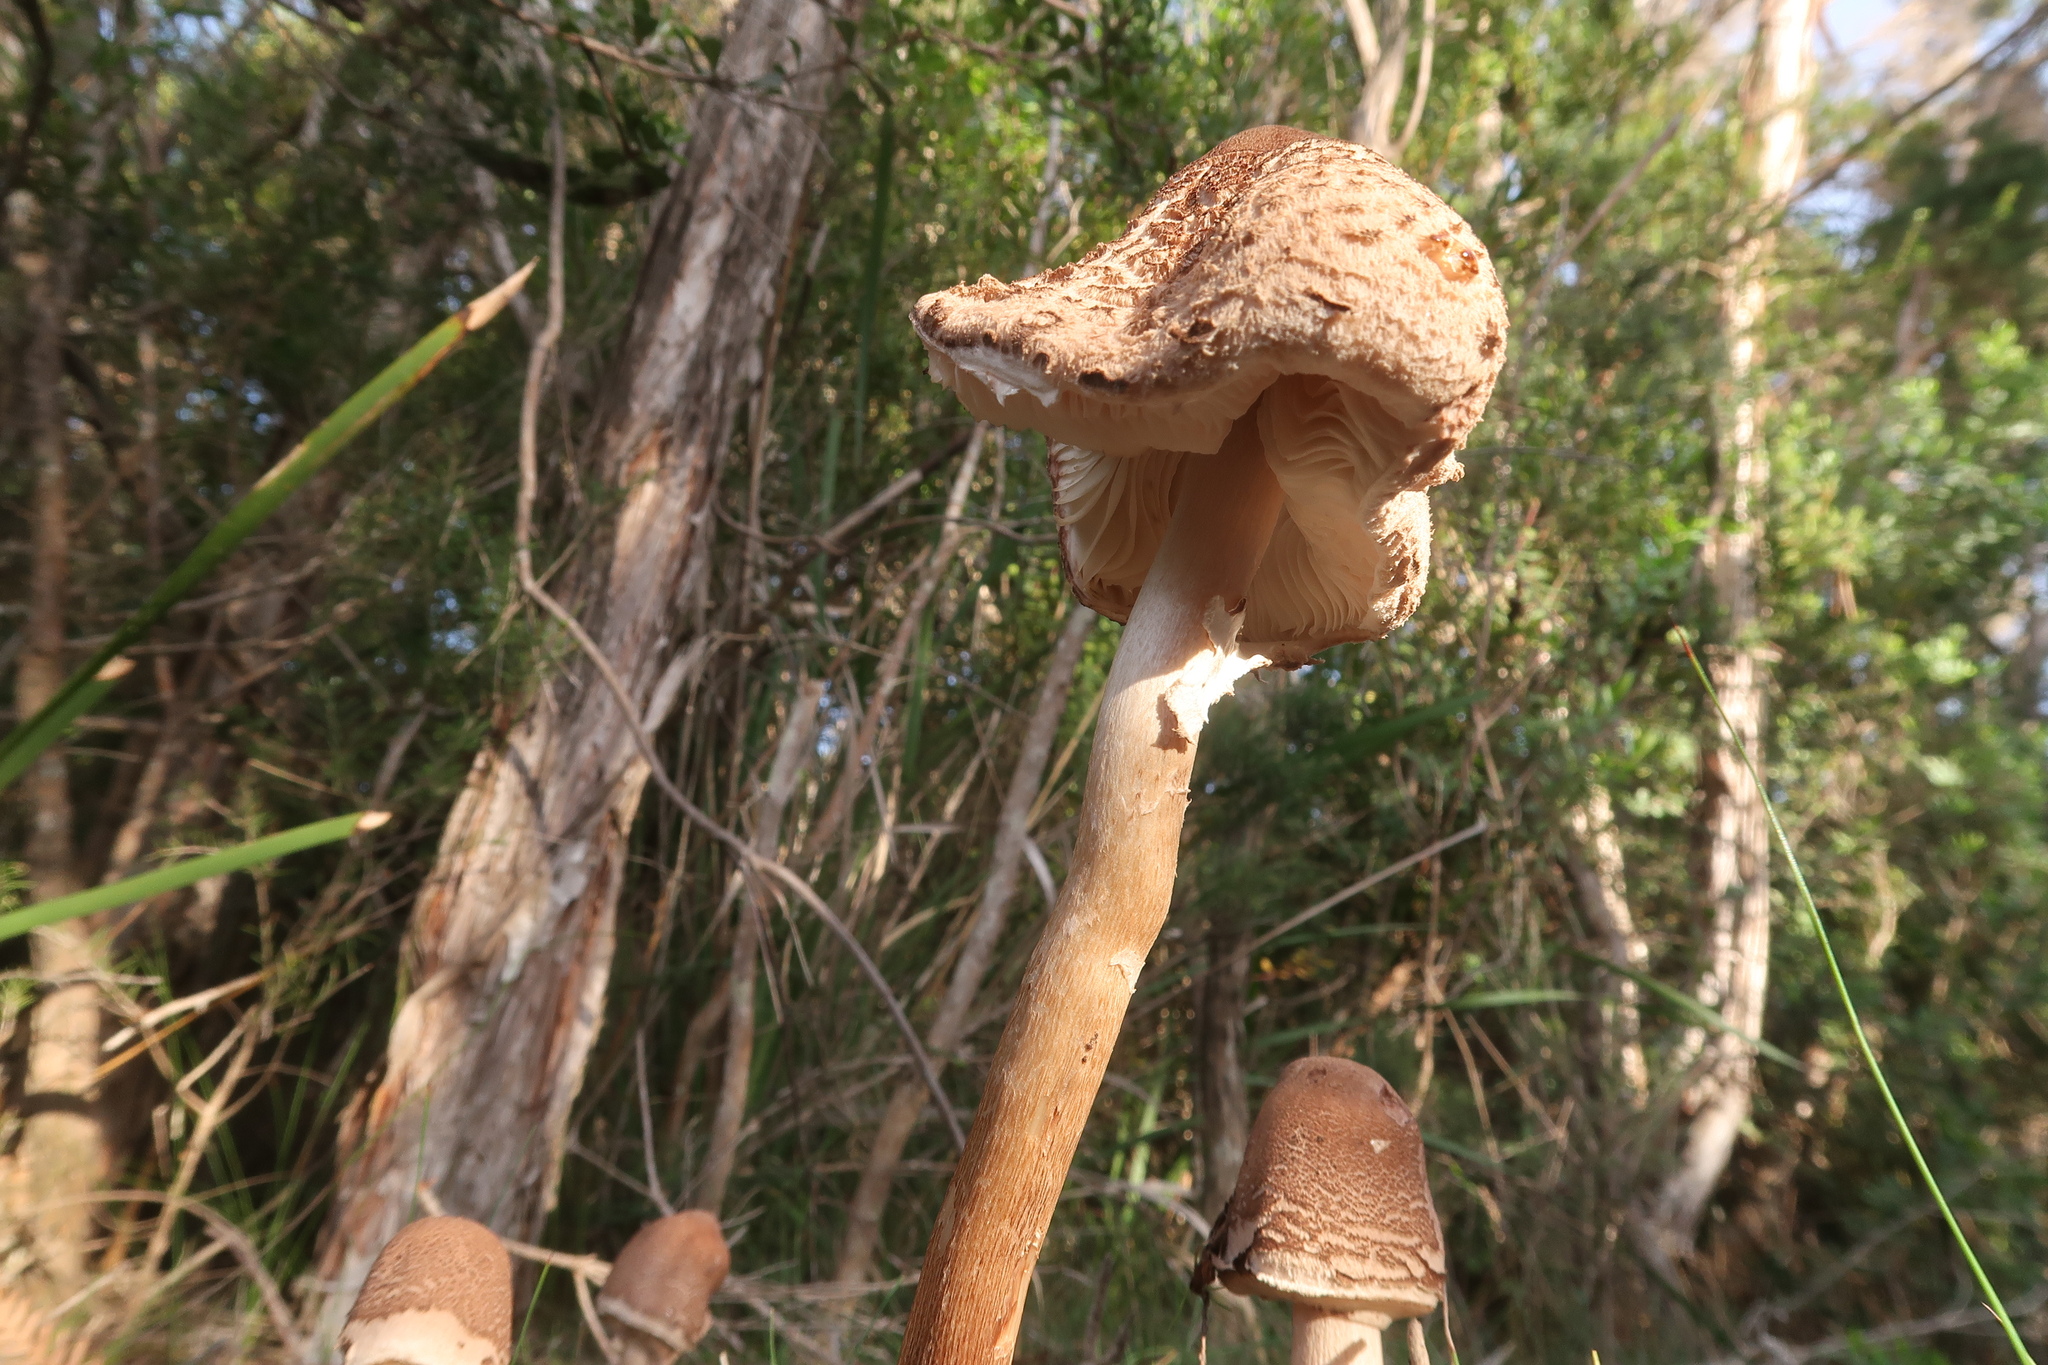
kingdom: Fungi
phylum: Basidiomycota
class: Agaricomycetes
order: Agaricales
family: Agaricaceae
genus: Macrolepiota
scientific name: Macrolepiota clelandii
